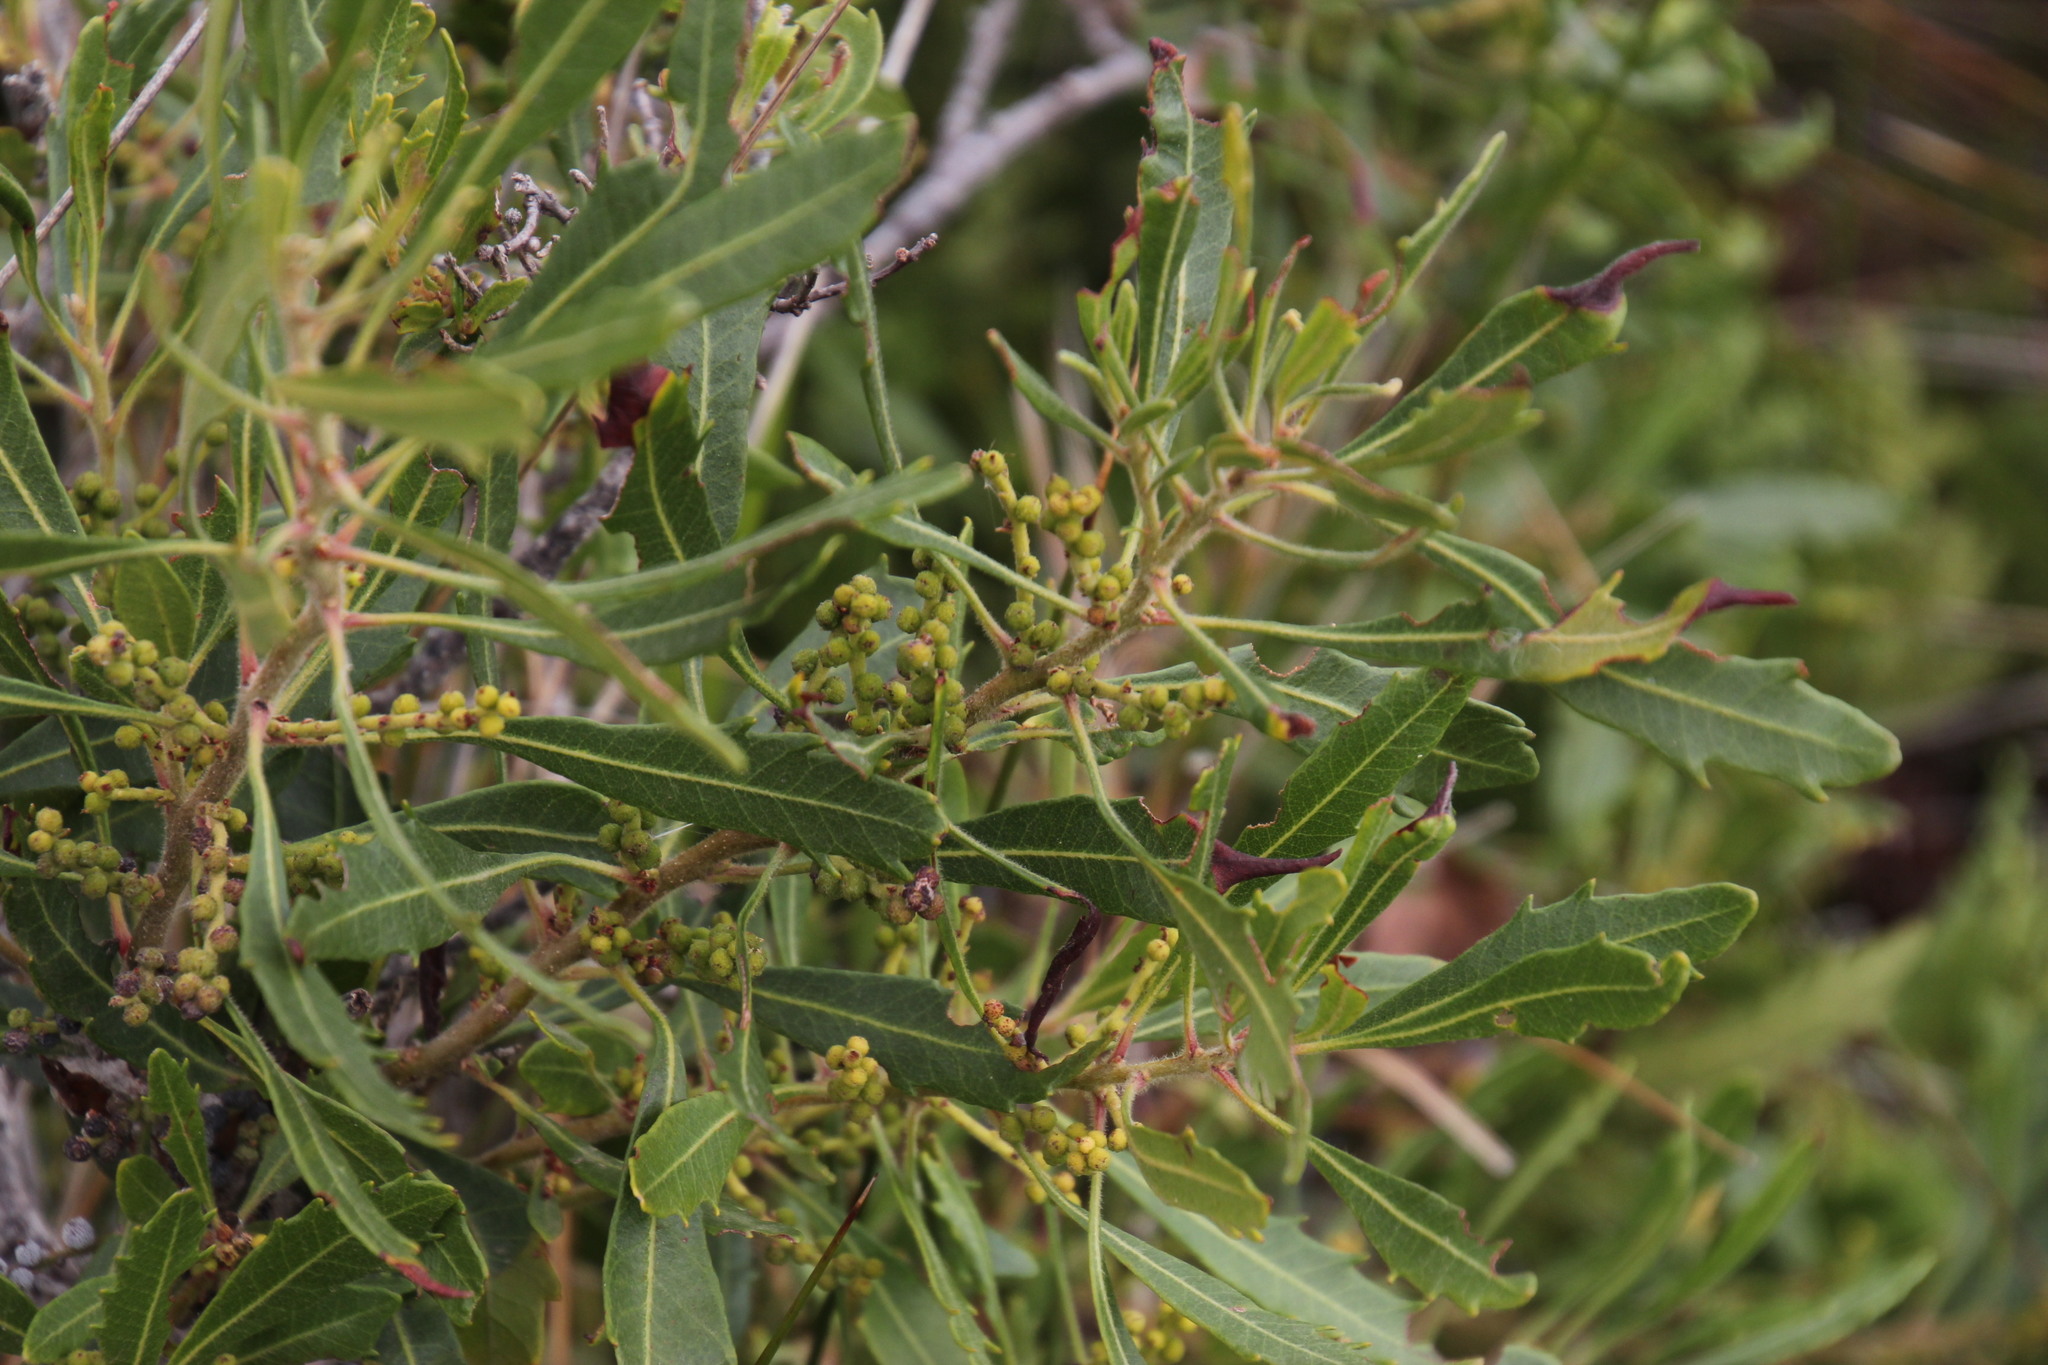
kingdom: Plantae
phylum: Tracheophyta
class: Magnoliopsida
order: Fagales
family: Myricaceae
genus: Morella
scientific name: Morella serrata
